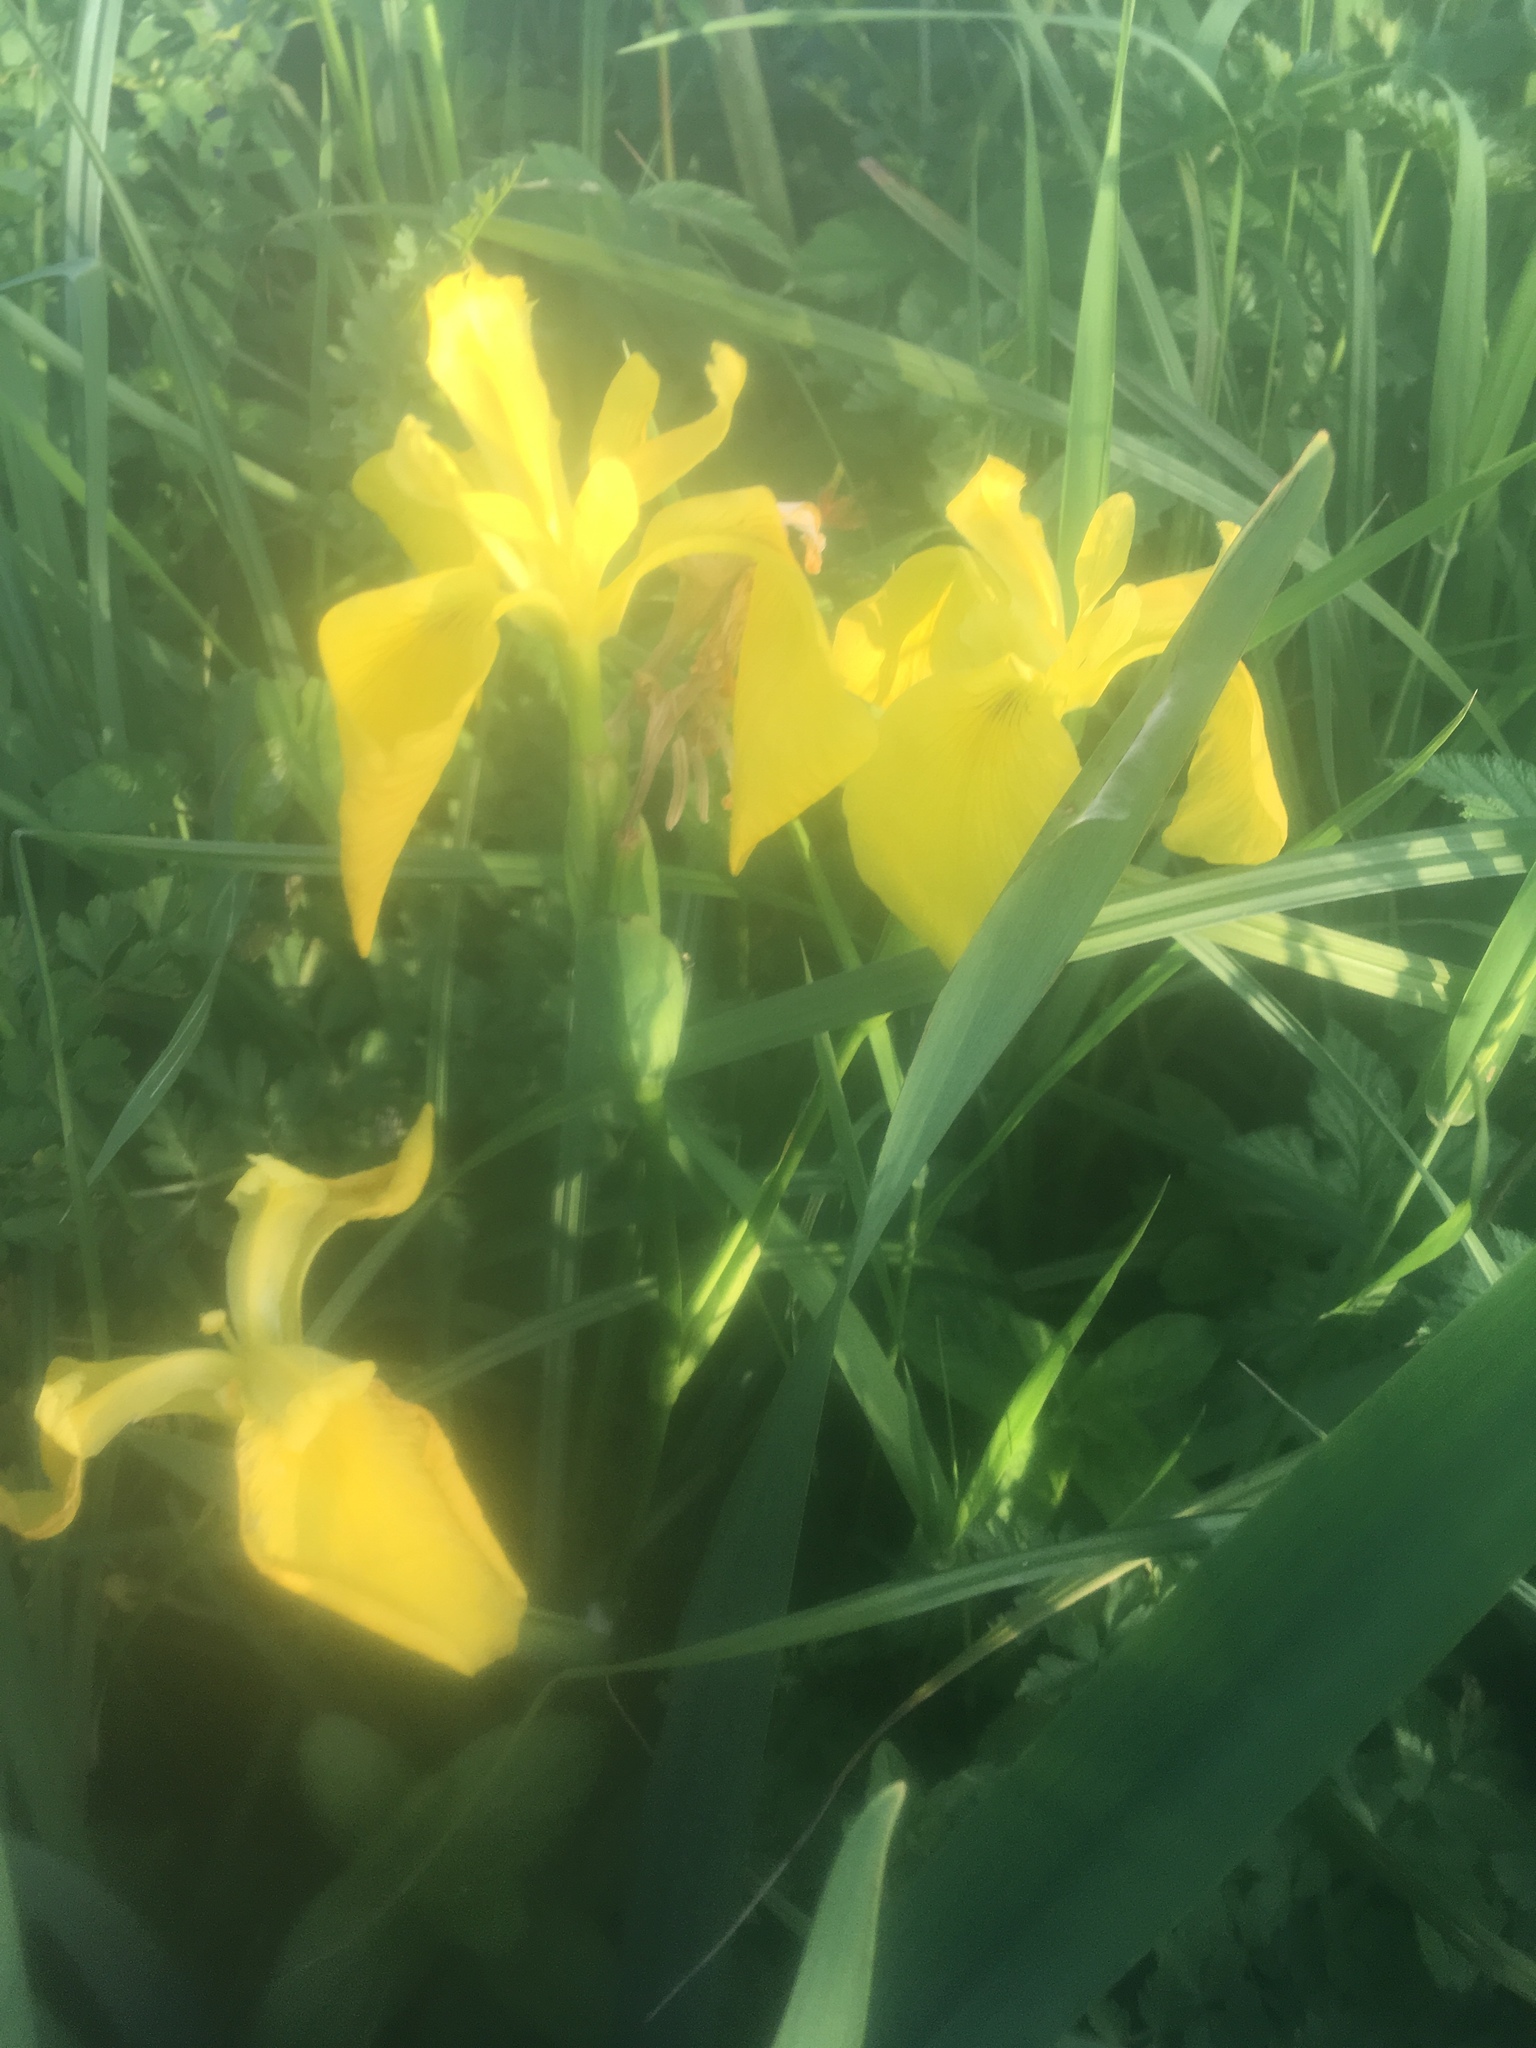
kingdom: Plantae
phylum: Tracheophyta
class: Liliopsida
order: Asparagales
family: Iridaceae
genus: Iris
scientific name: Iris pseudacorus
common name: Yellow flag
